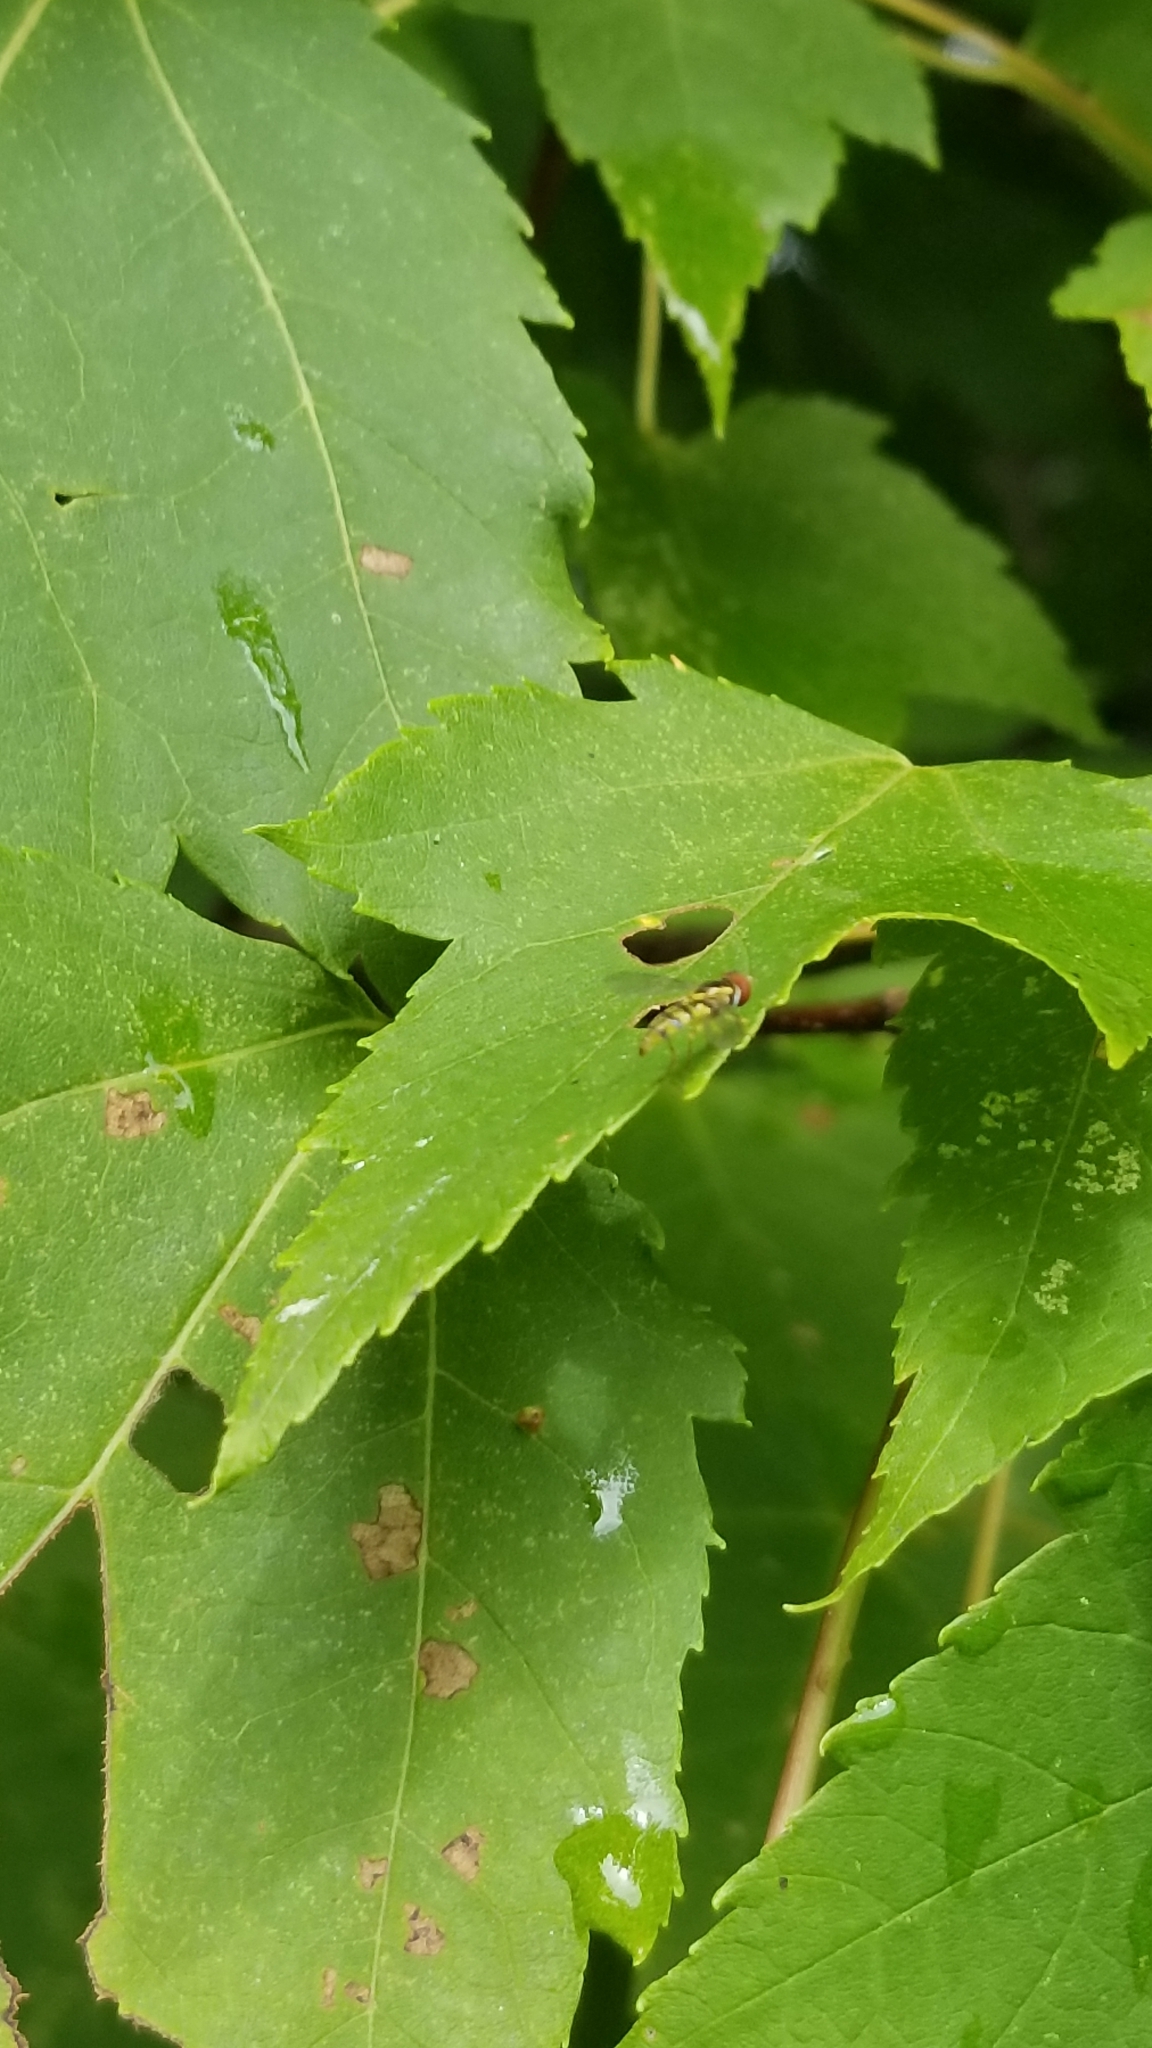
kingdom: Animalia
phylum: Arthropoda
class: Insecta
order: Diptera
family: Syrphidae
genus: Toxomerus
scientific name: Toxomerus geminatus
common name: Eastern calligrapher
